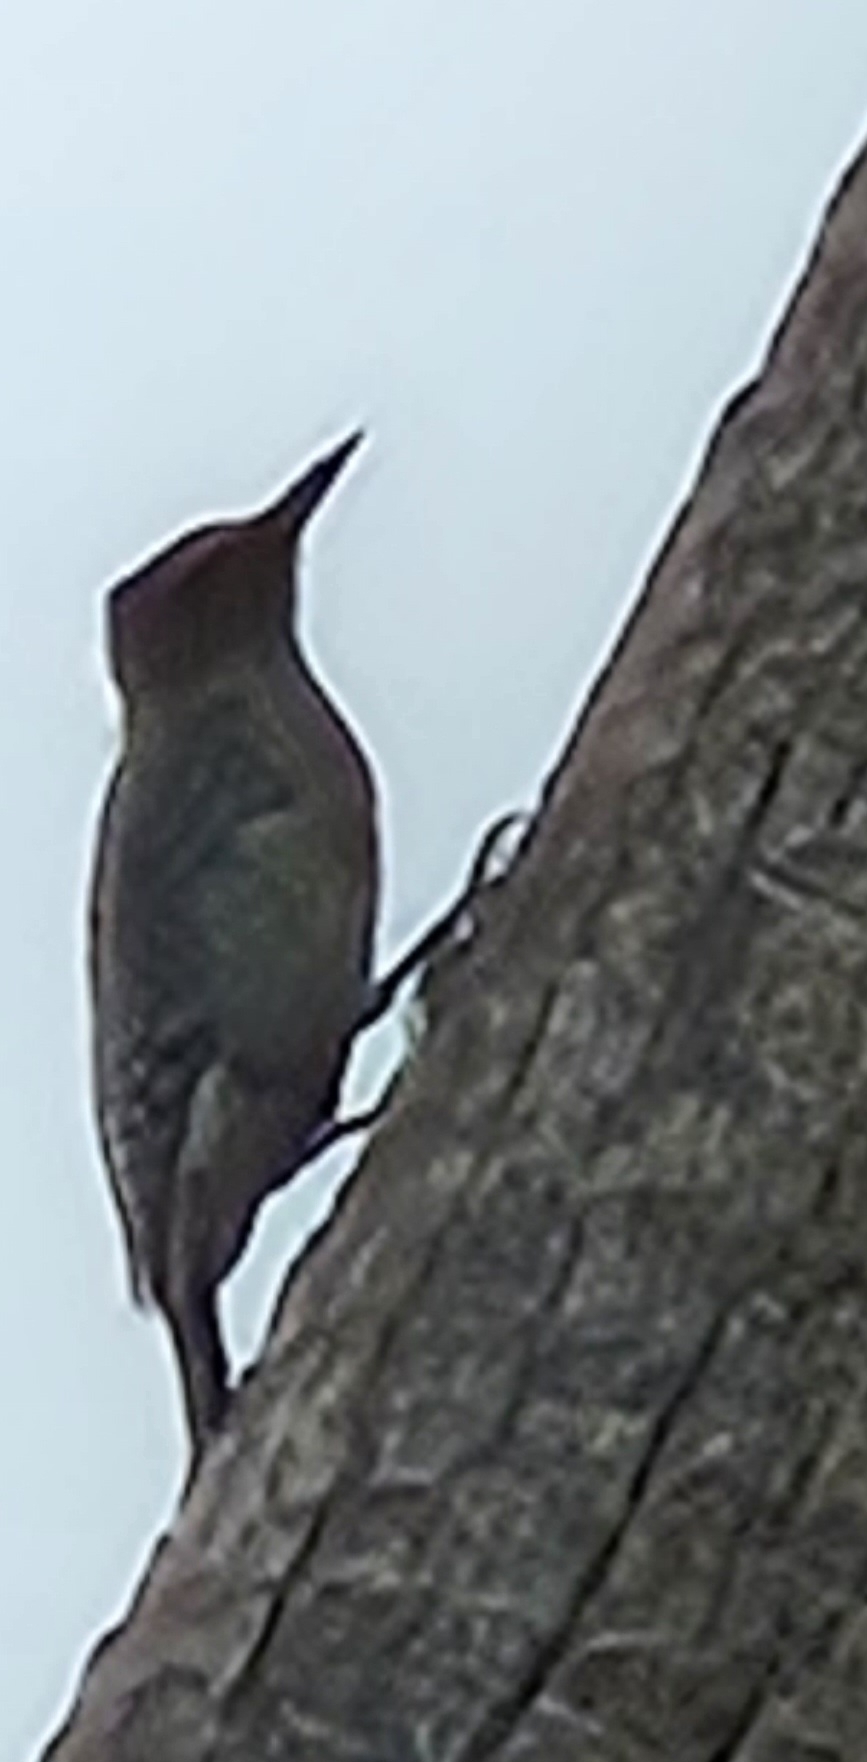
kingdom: Animalia
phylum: Chordata
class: Aves
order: Piciformes
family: Picidae
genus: Melanerpes
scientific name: Melanerpes aurifrons
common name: Golden-fronted woodpecker
